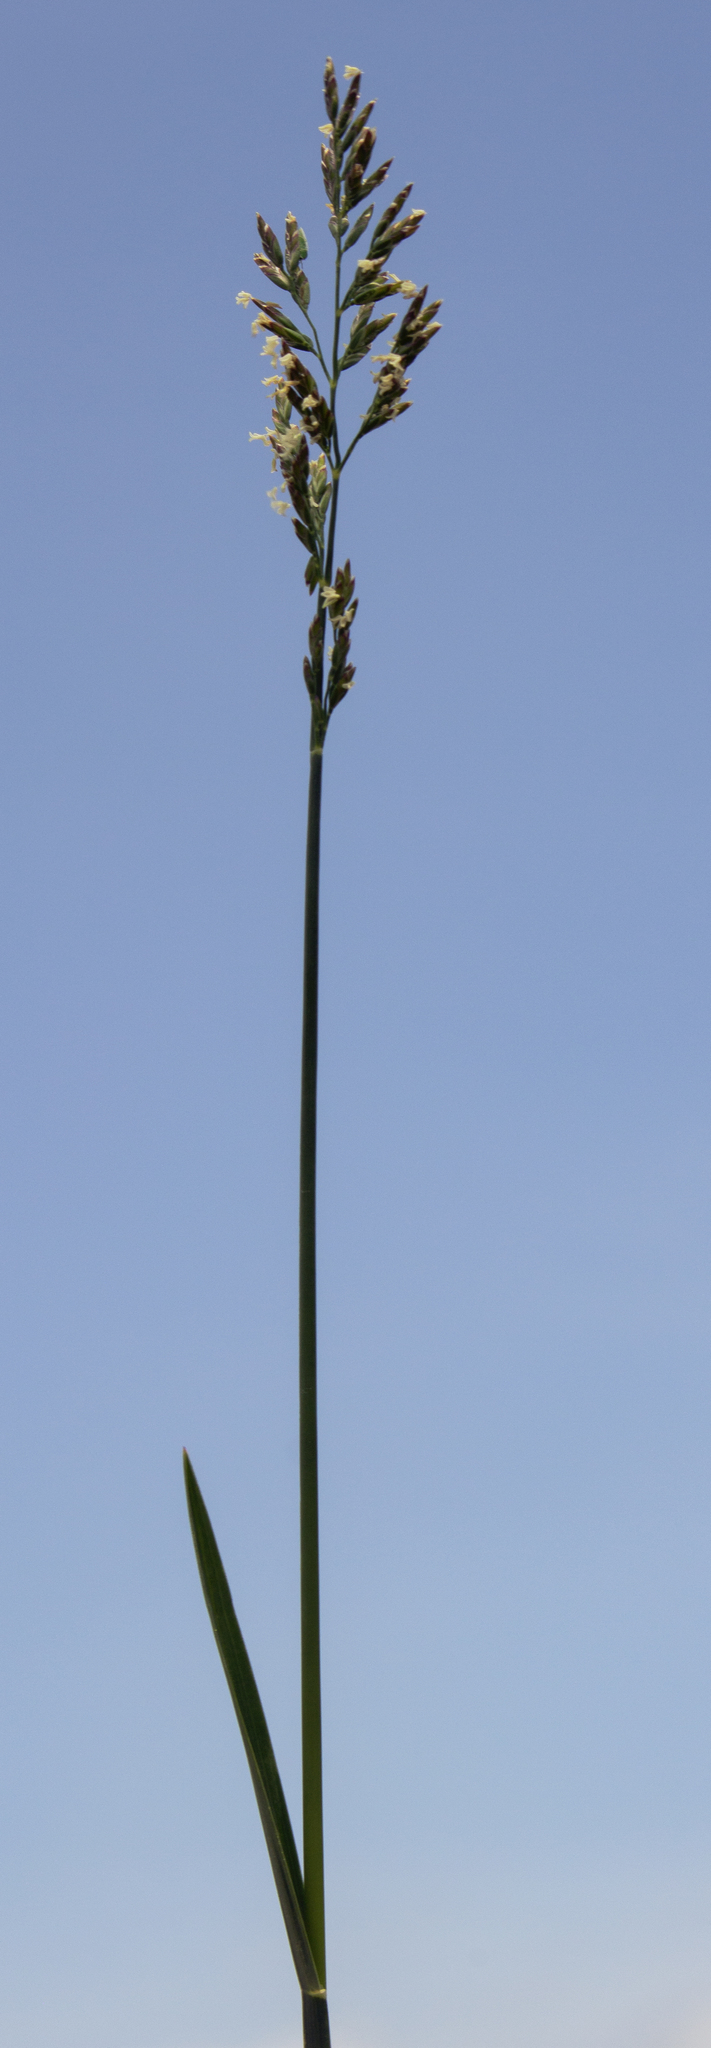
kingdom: Plantae
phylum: Tracheophyta
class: Liliopsida
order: Poales
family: Poaceae
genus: Poa
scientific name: Poa compressa
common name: Canada bluegrass
